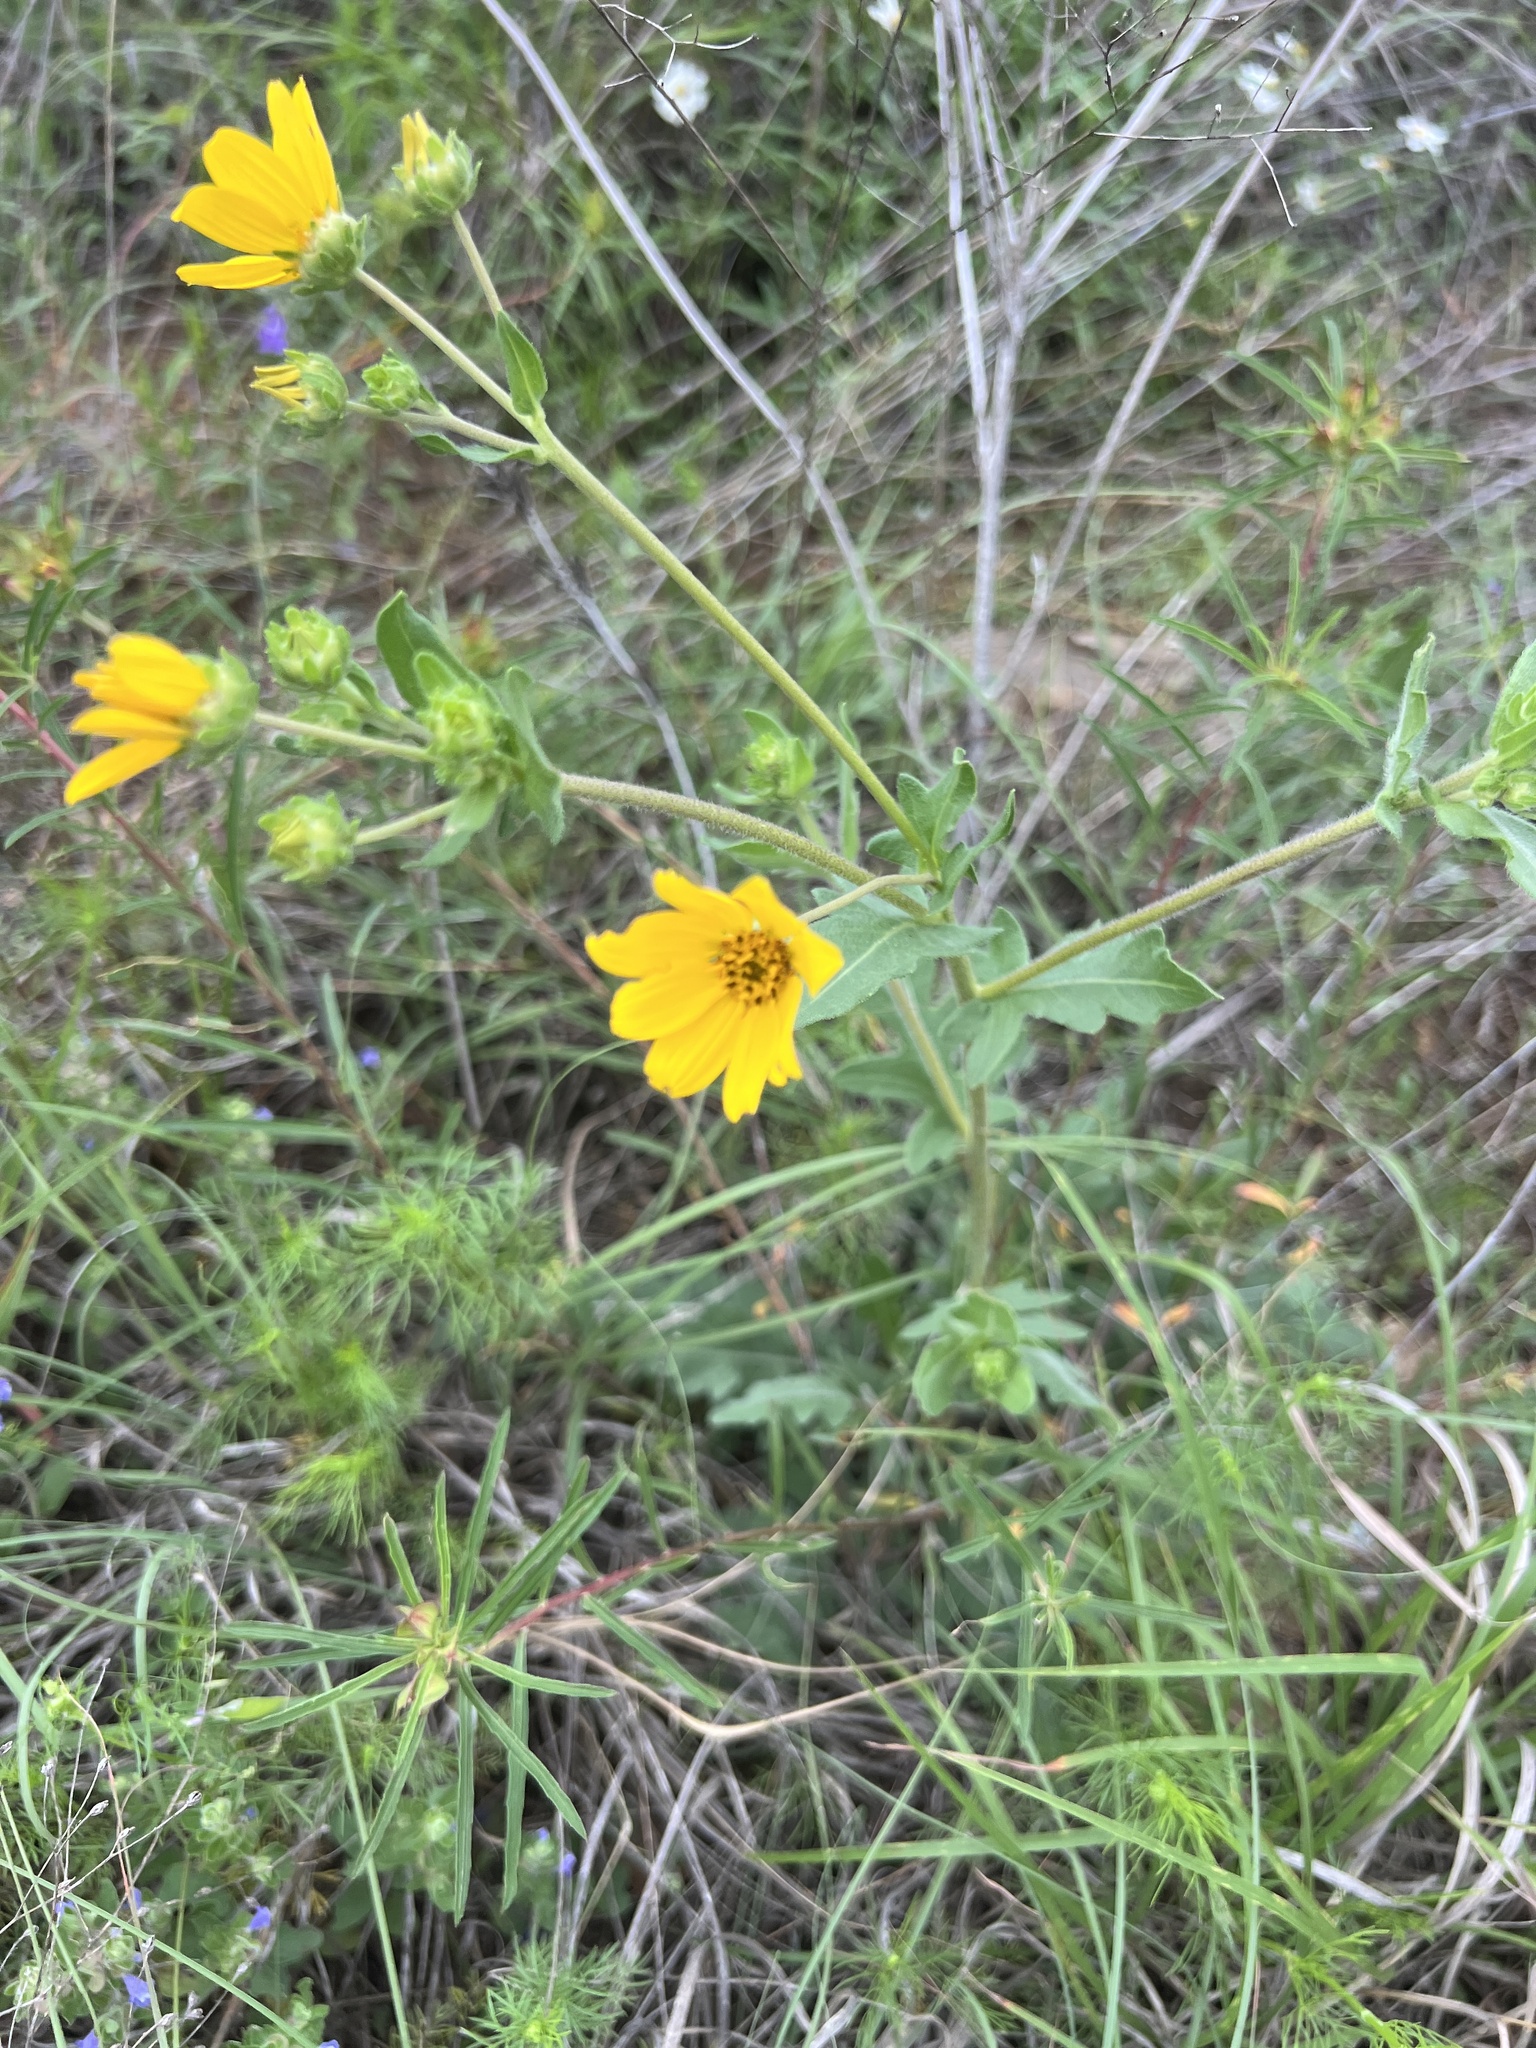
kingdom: Plantae
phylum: Tracheophyta
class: Magnoliopsida
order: Asterales
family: Asteraceae
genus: Engelmannia
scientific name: Engelmannia peristenia
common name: Engelmann's daisy
